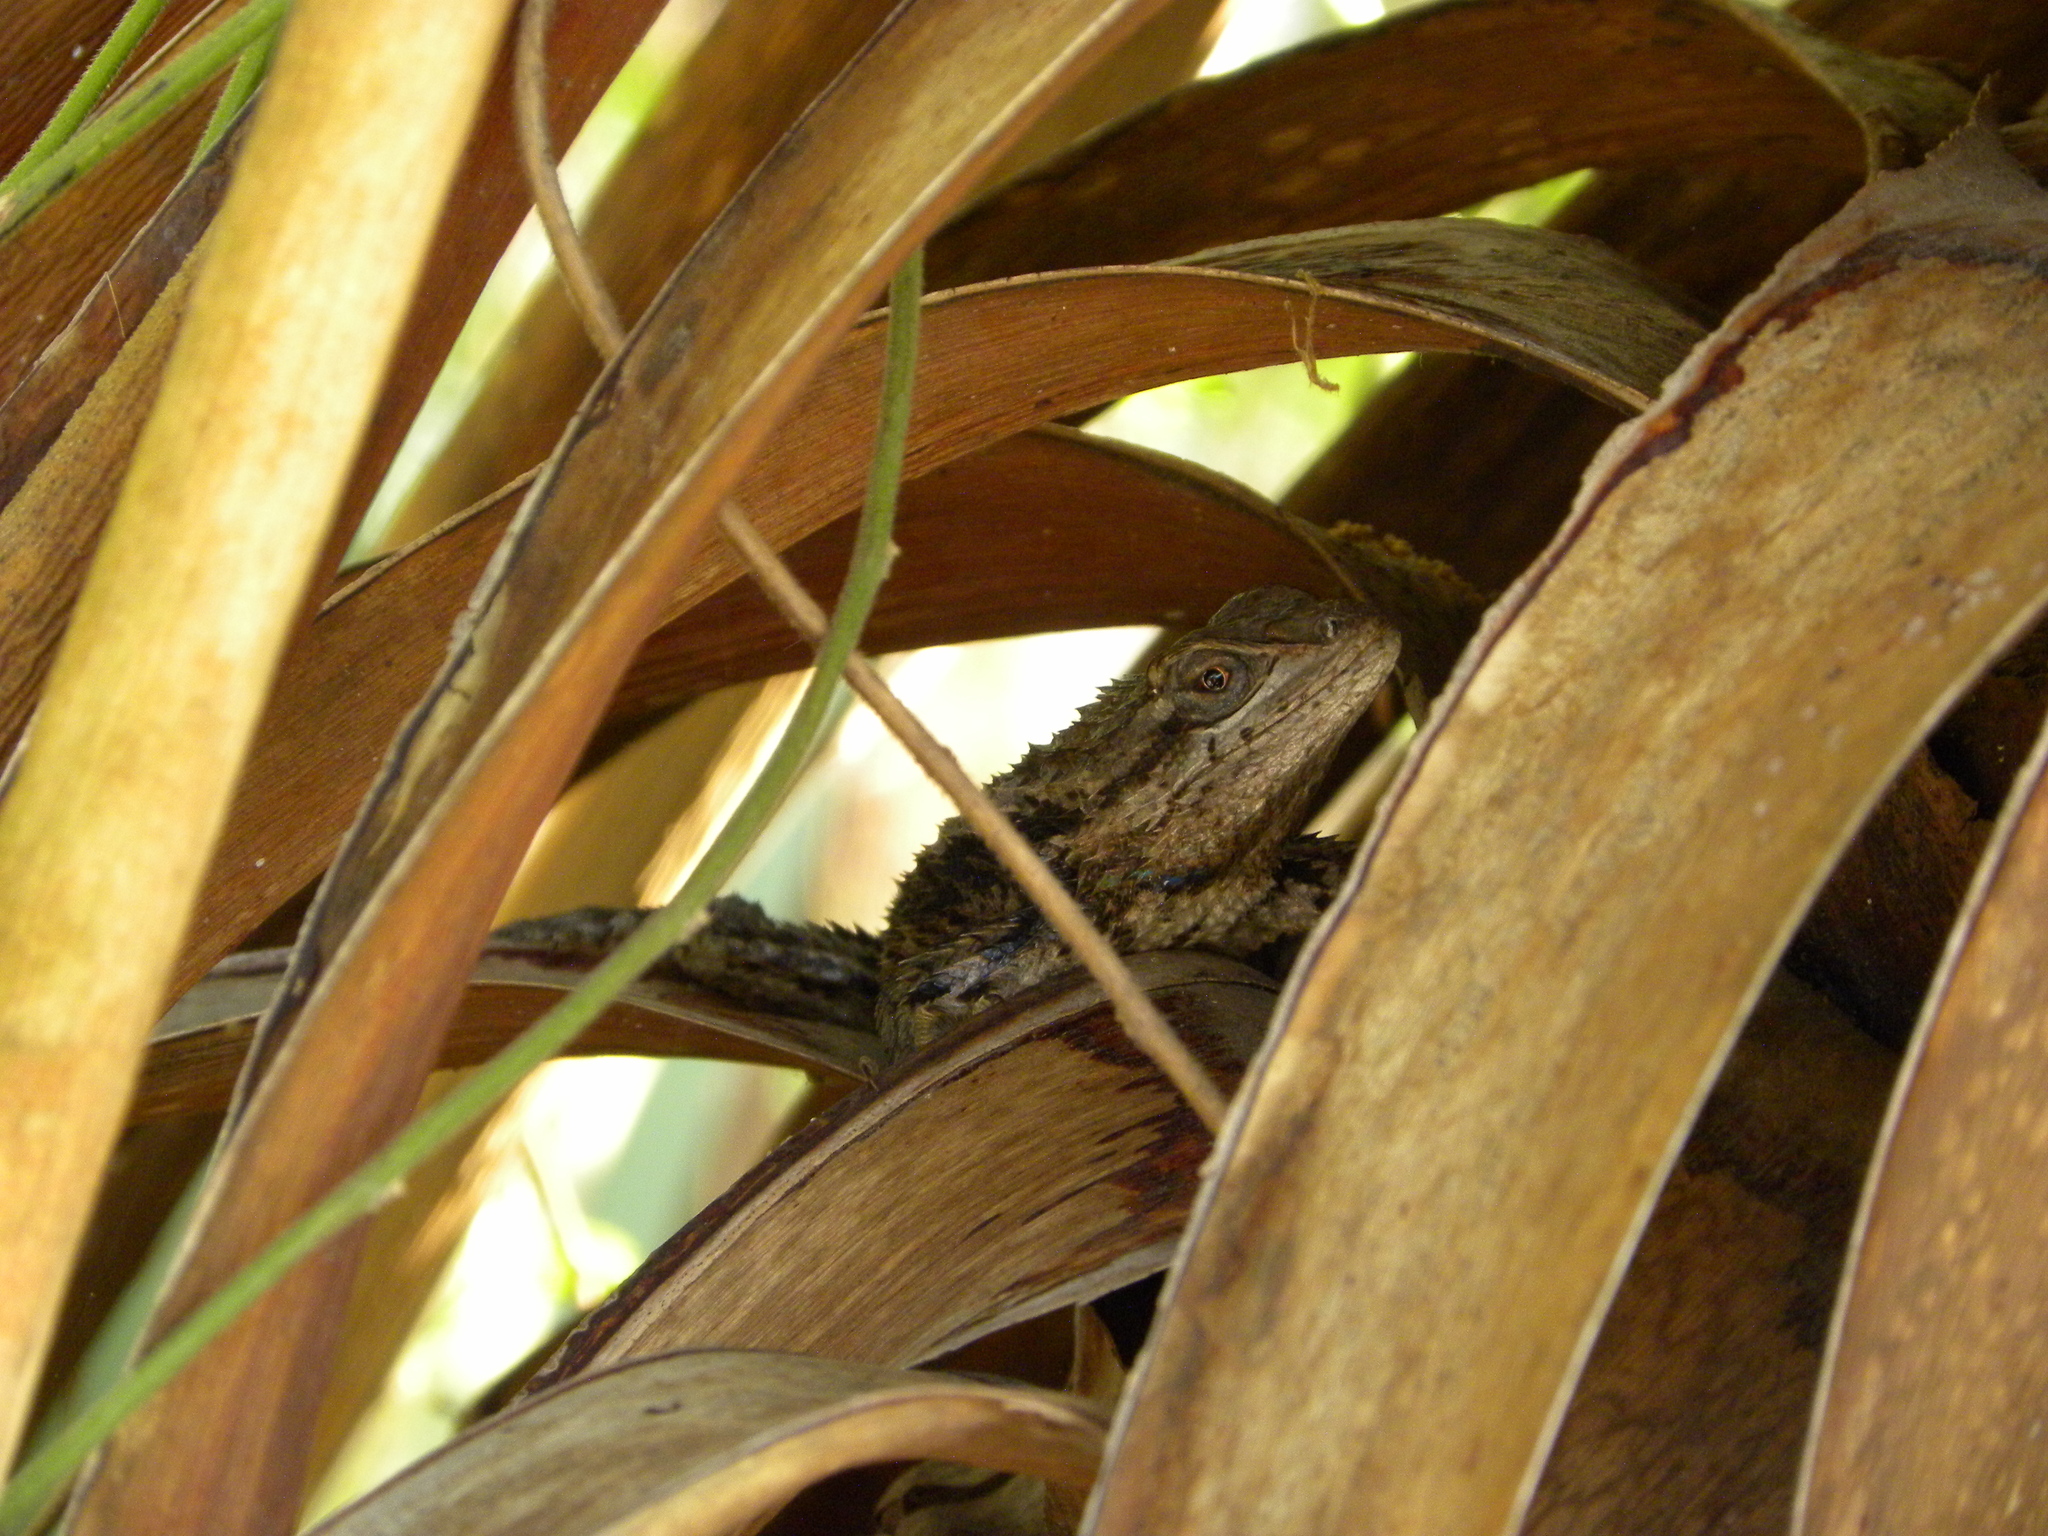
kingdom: Animalia
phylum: Chordata
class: Squamata
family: Phrynosomatidae
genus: Sceloporus
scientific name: Sceloporus olivaceus
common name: Texas spiny lizard
